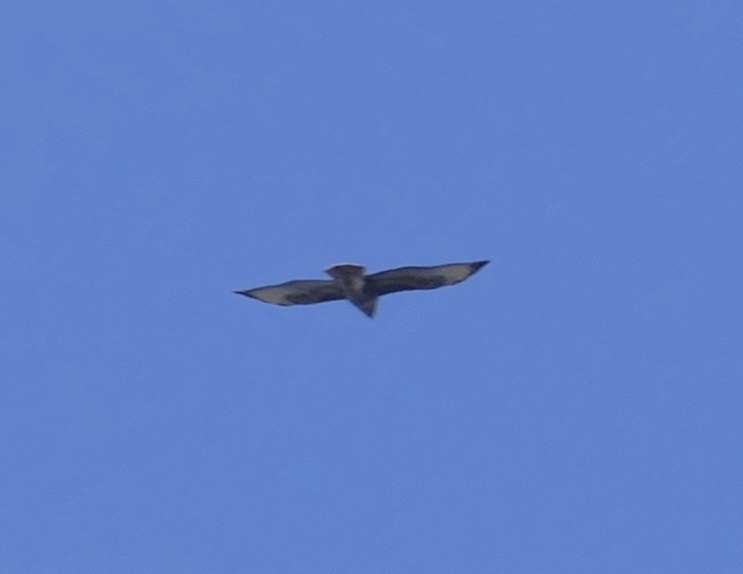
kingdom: Animalia
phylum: Chordata
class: Aves
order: Accipitriformes
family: Accipitridae
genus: Buteo
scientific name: Buteo buteo
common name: Common buzzard
